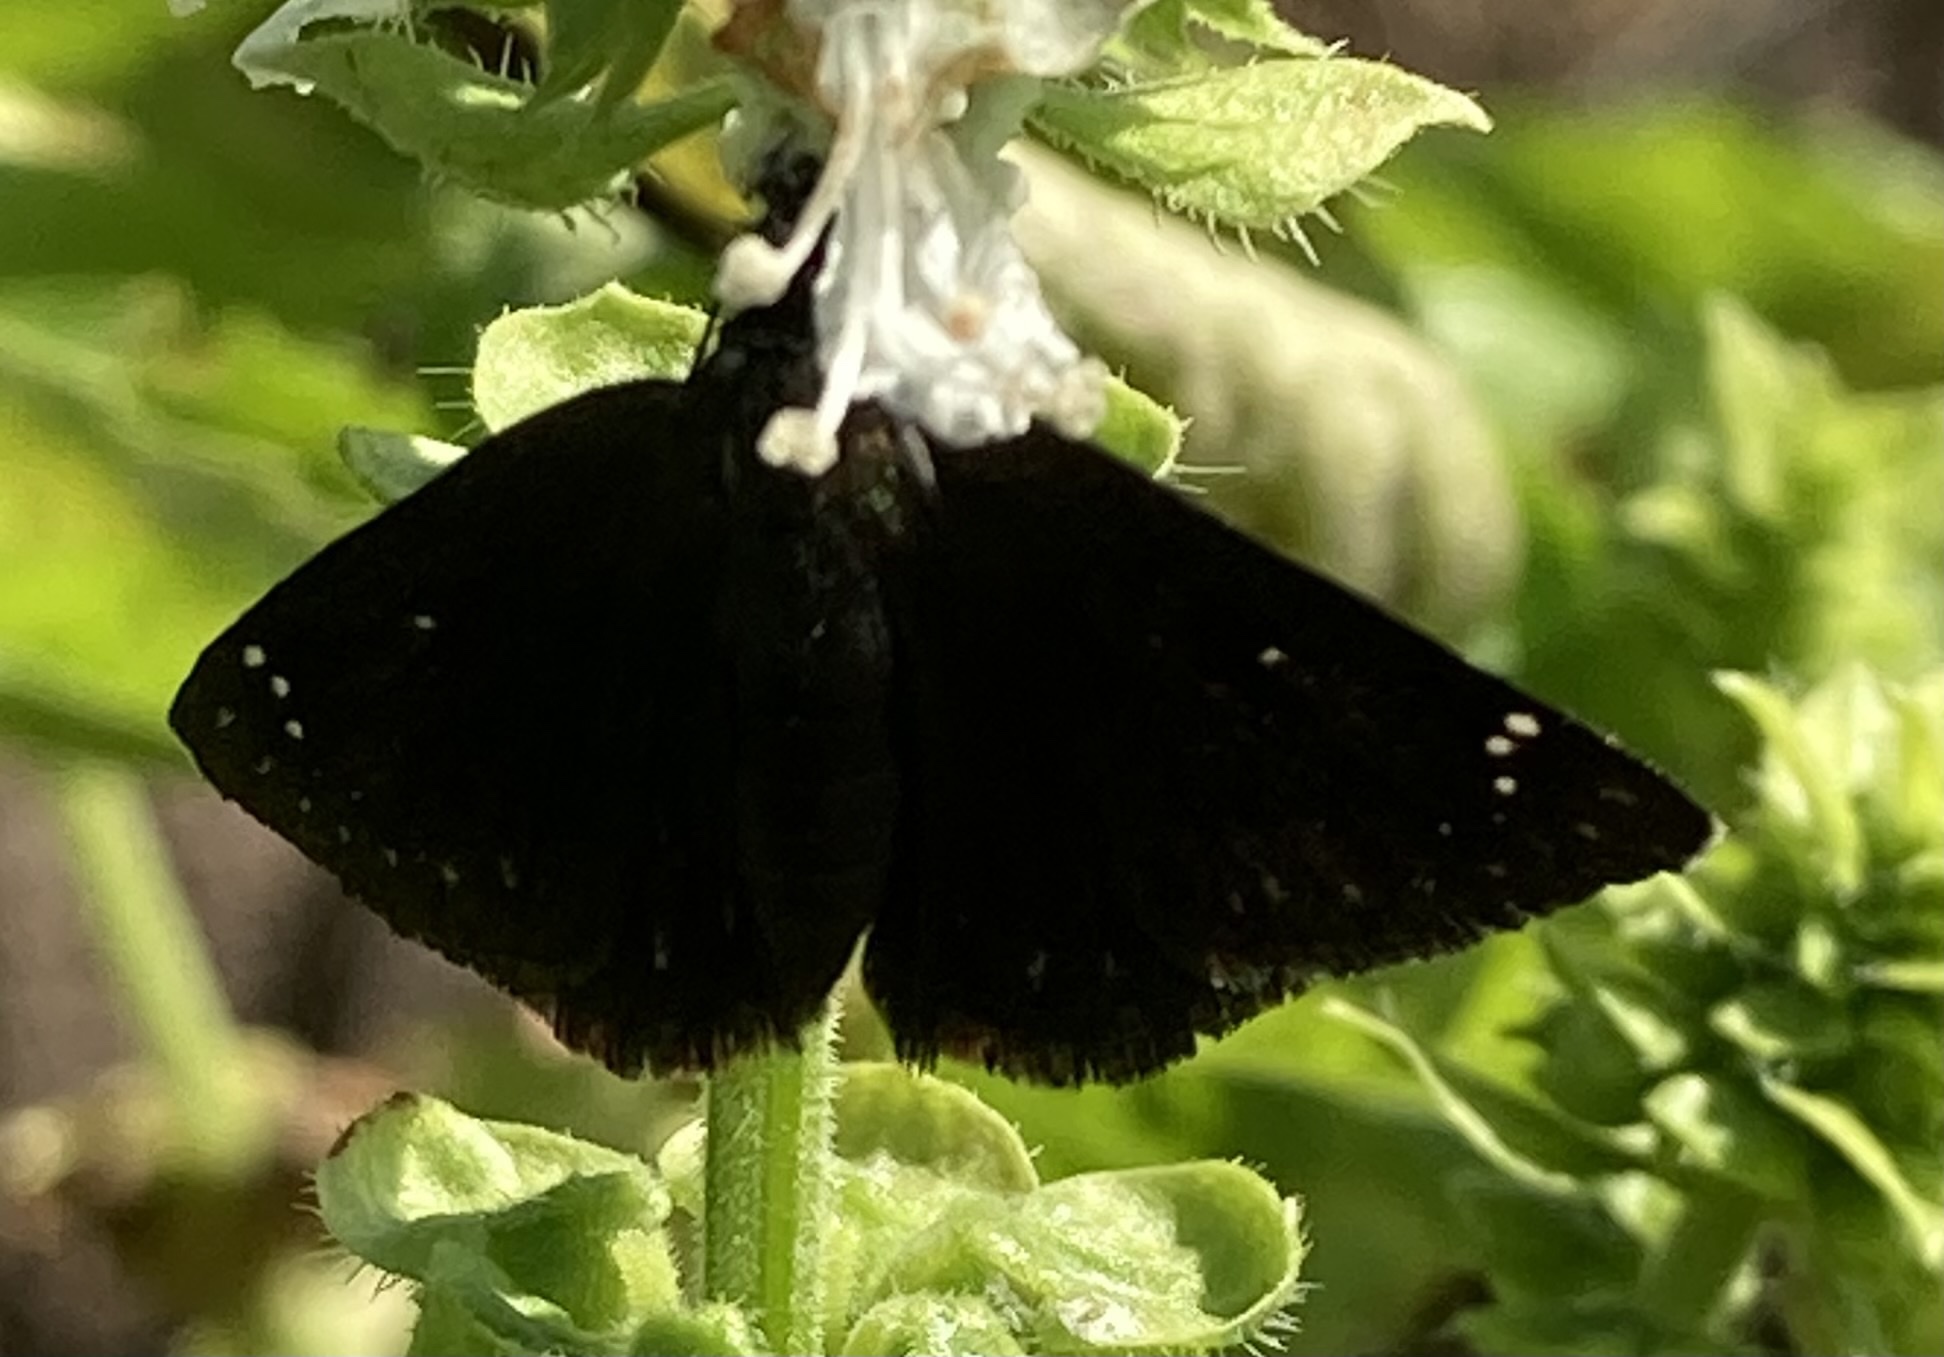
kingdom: Animalia
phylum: Arthropoda
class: Insecta
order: Lepidoptera
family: Hesperiidae
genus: Pholisora
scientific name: Pholisora catullus
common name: Common sootywing
